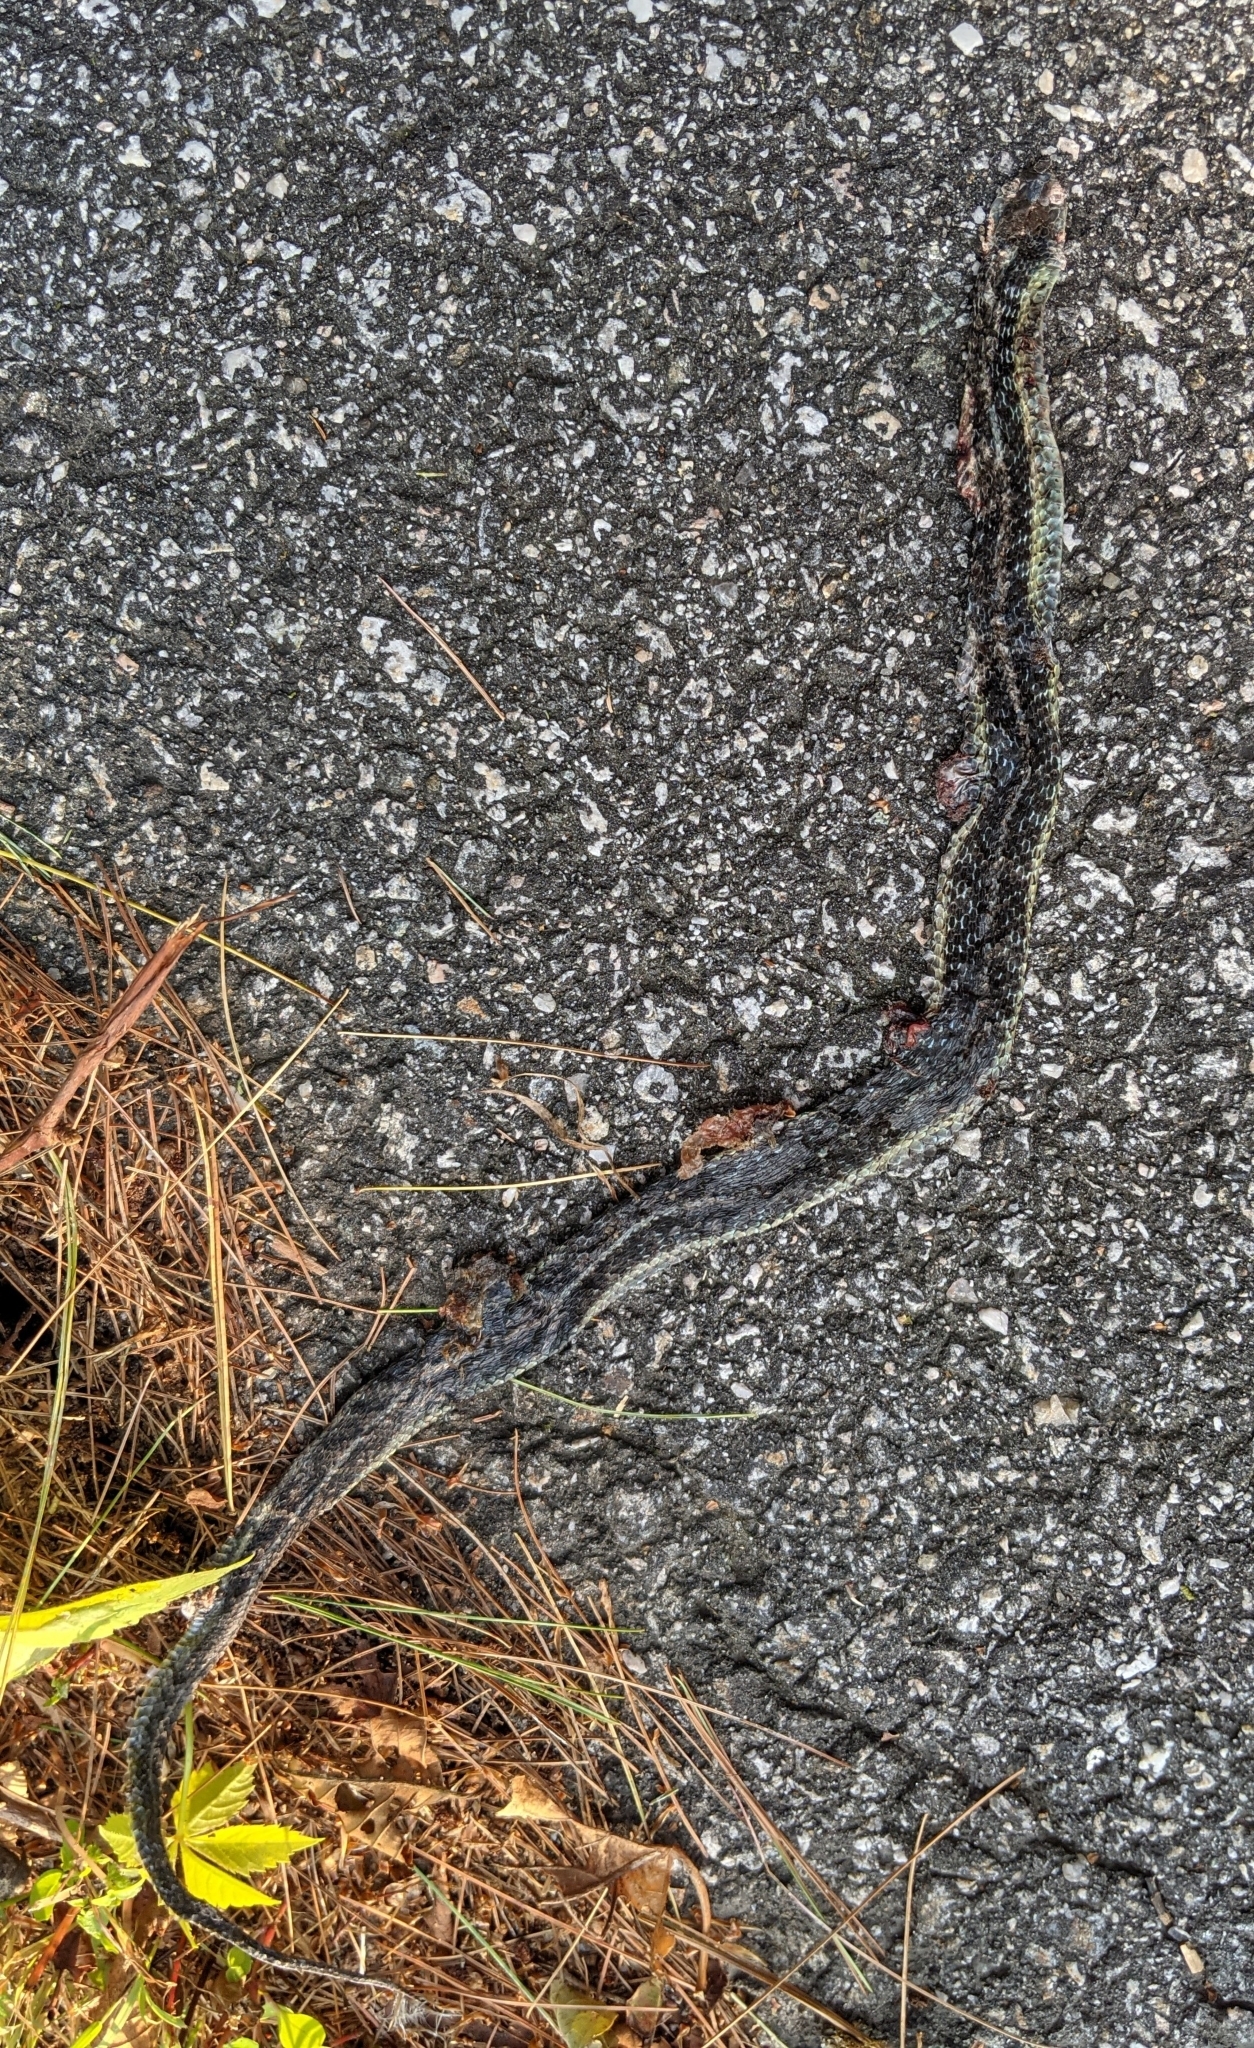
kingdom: Animalia
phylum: Chordata
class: Squamata
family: Colubridae
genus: Thamnophis
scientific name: Thamnophis sirtalis
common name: Common garter snake
